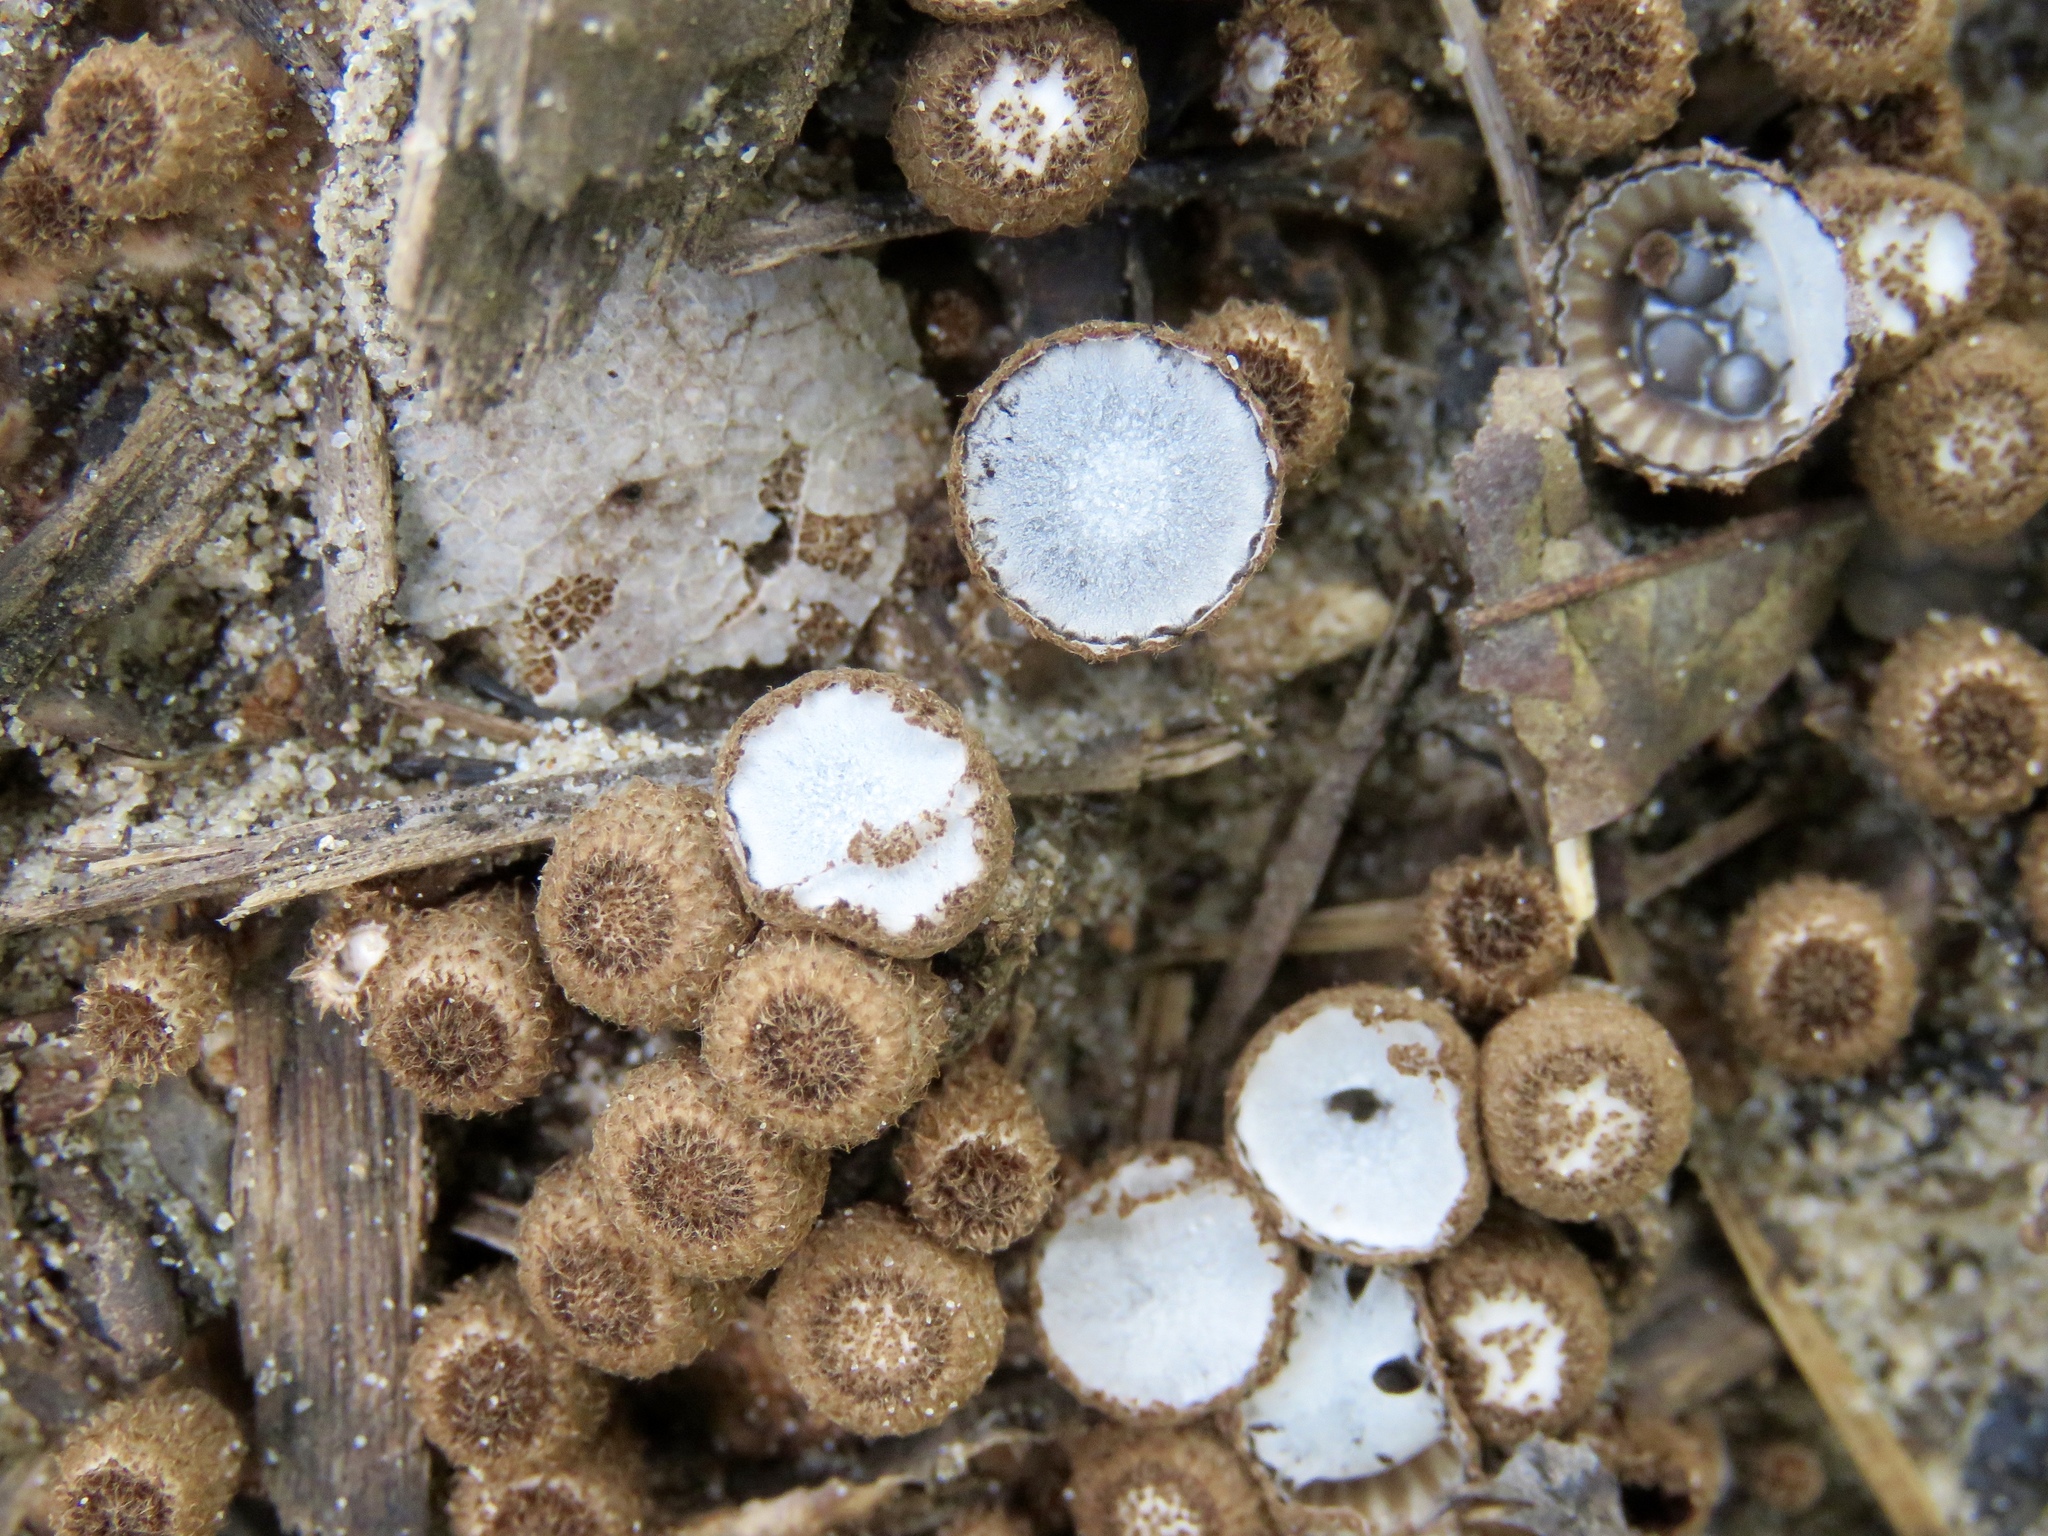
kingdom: Fungi
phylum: Basidiomycota
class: Agaricomycetes
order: Agaricales
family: Agaricaceae
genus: Cyathus
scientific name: Cyathus striatus
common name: Fluted bird's nest
